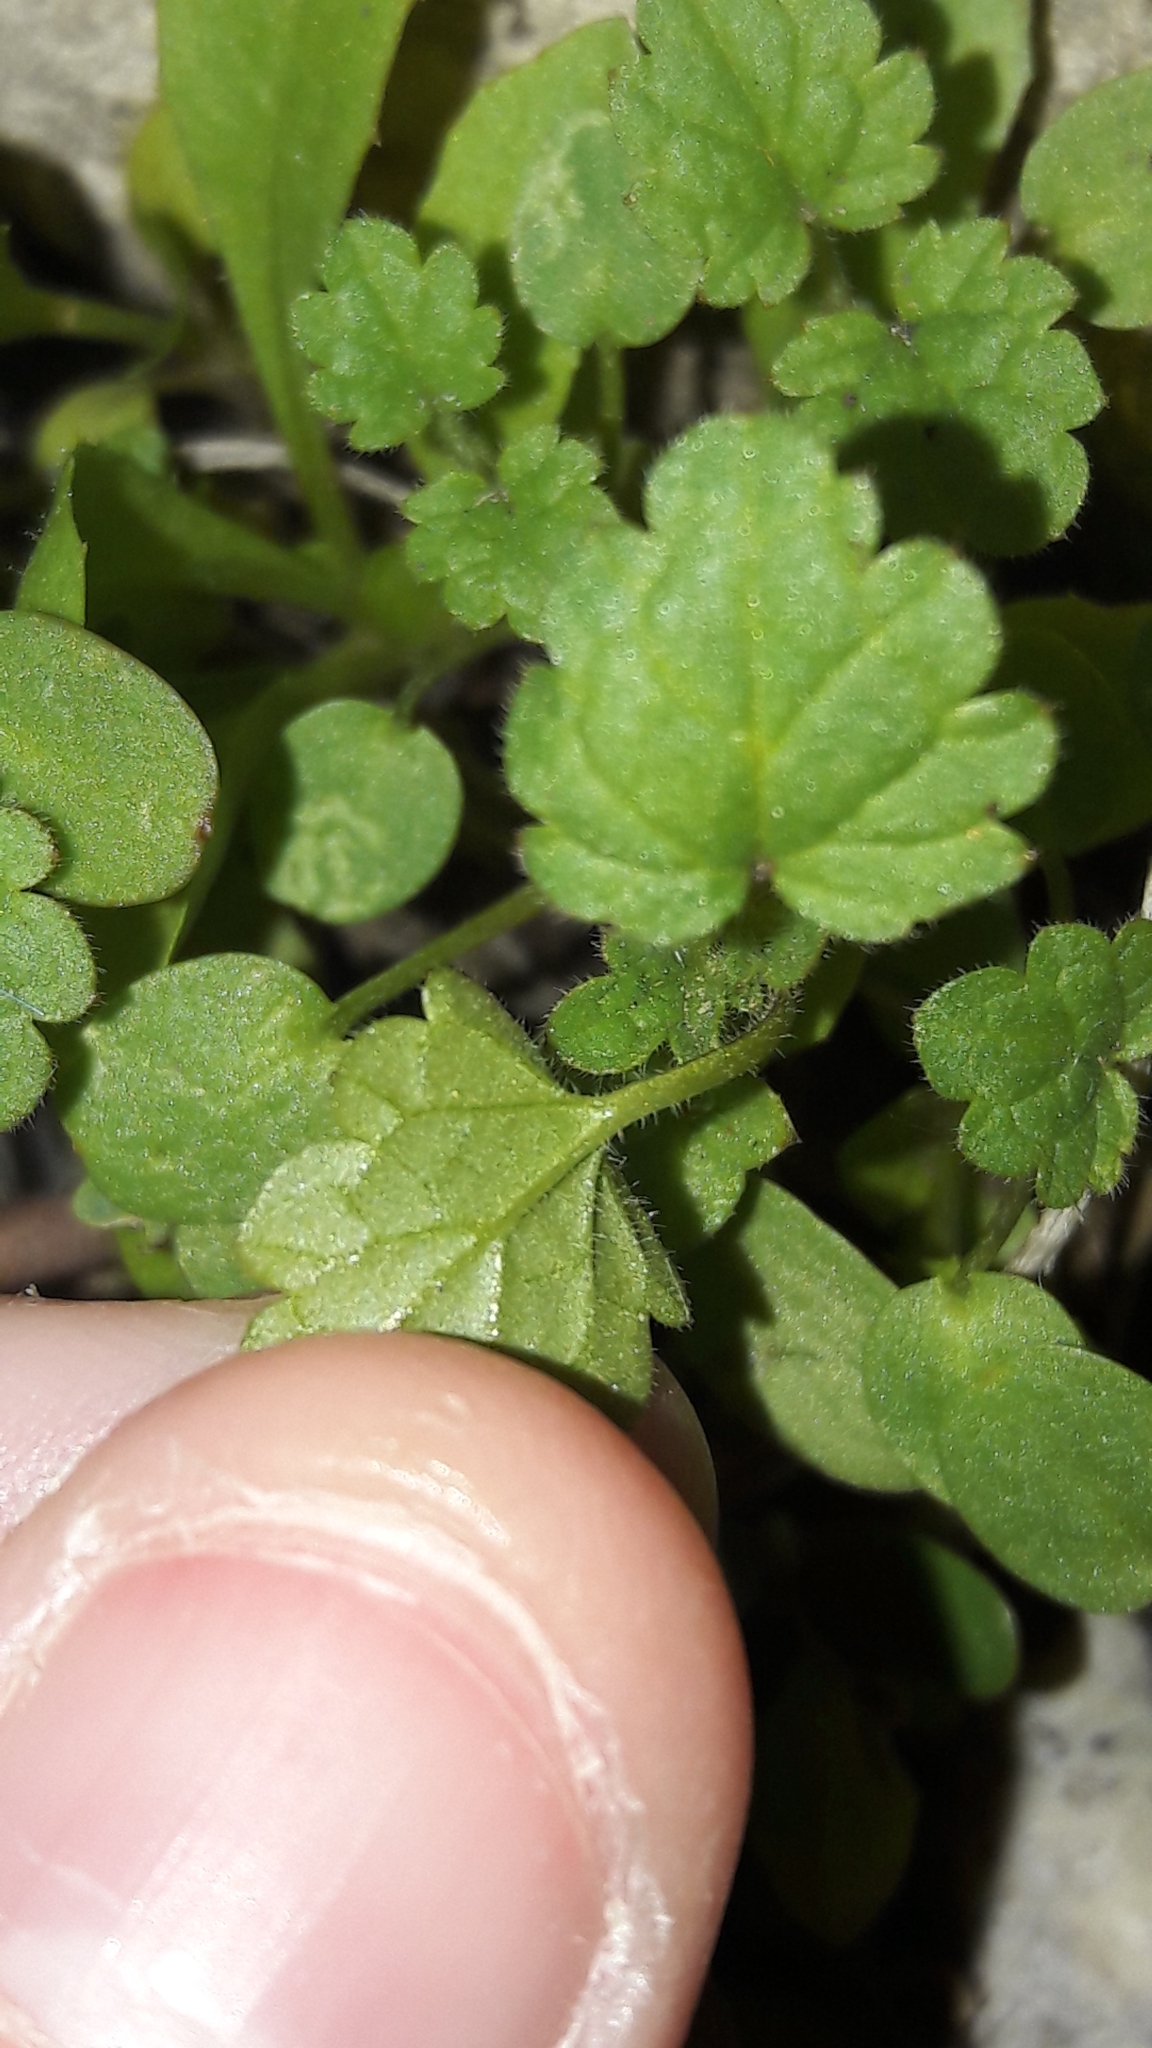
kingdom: Plantae
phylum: Tracheophyta
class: Magnoliopsida
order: Lamiales
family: Plantaginaceae
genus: Veronica
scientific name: Veronica cymbalaria
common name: Pale speedwell
